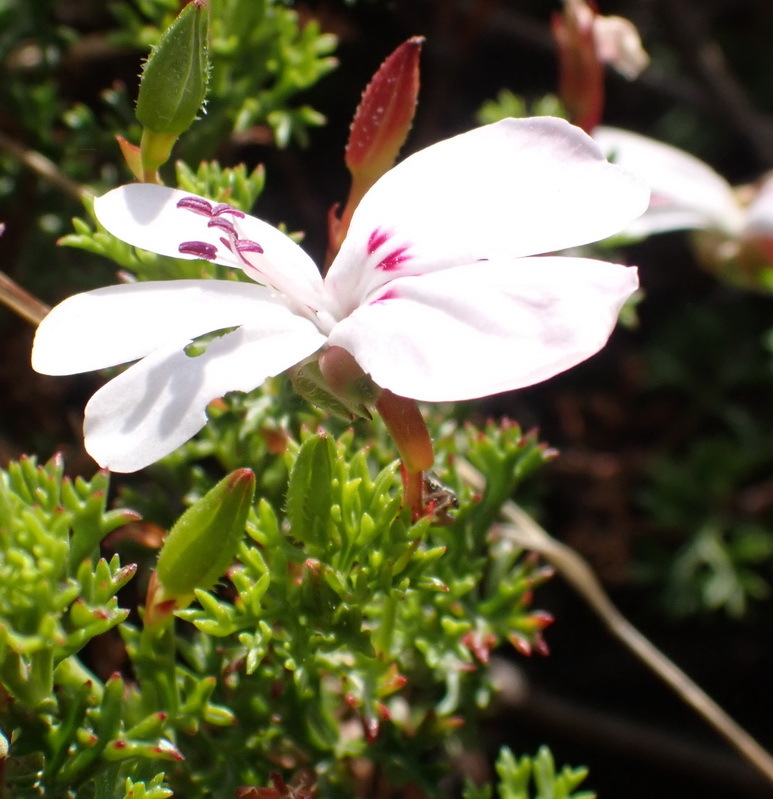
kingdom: Plantae
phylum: Tracheophyta
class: Magnoliopsida
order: Geraniales
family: Geraniaceae
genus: Pelargonium
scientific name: Pelargonium fruticosum
